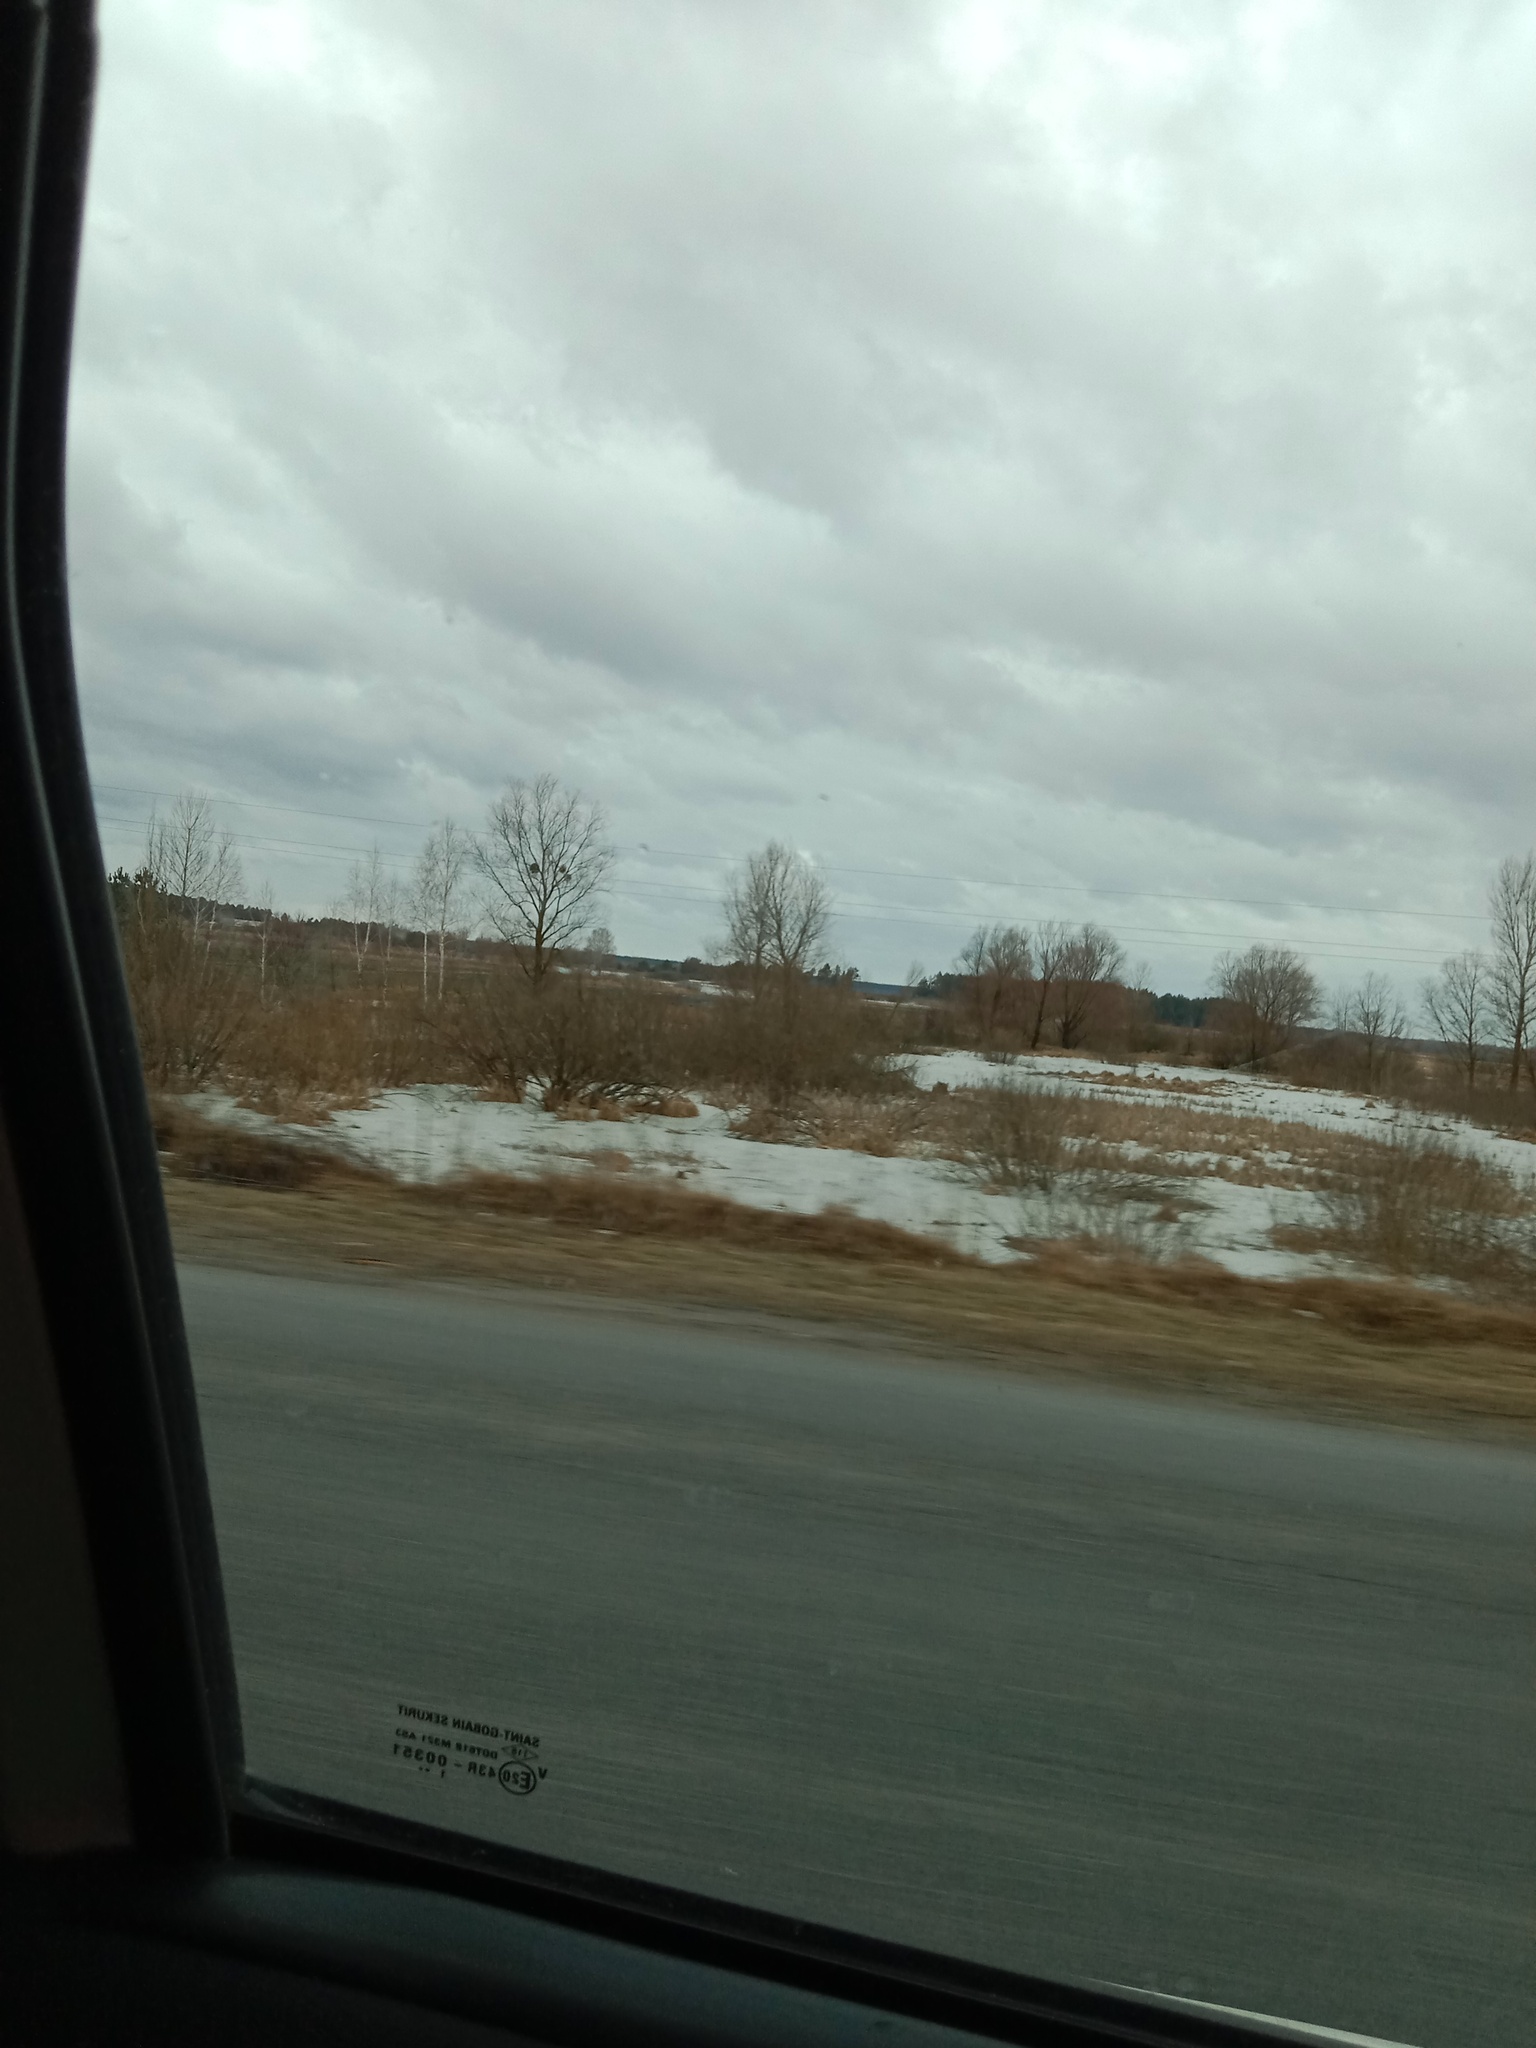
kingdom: Plantae
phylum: Tracheophyta
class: Magnoliopsida
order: Santalales
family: Viscaceae
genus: Viscum
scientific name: Viscum album
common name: Mistletoe
